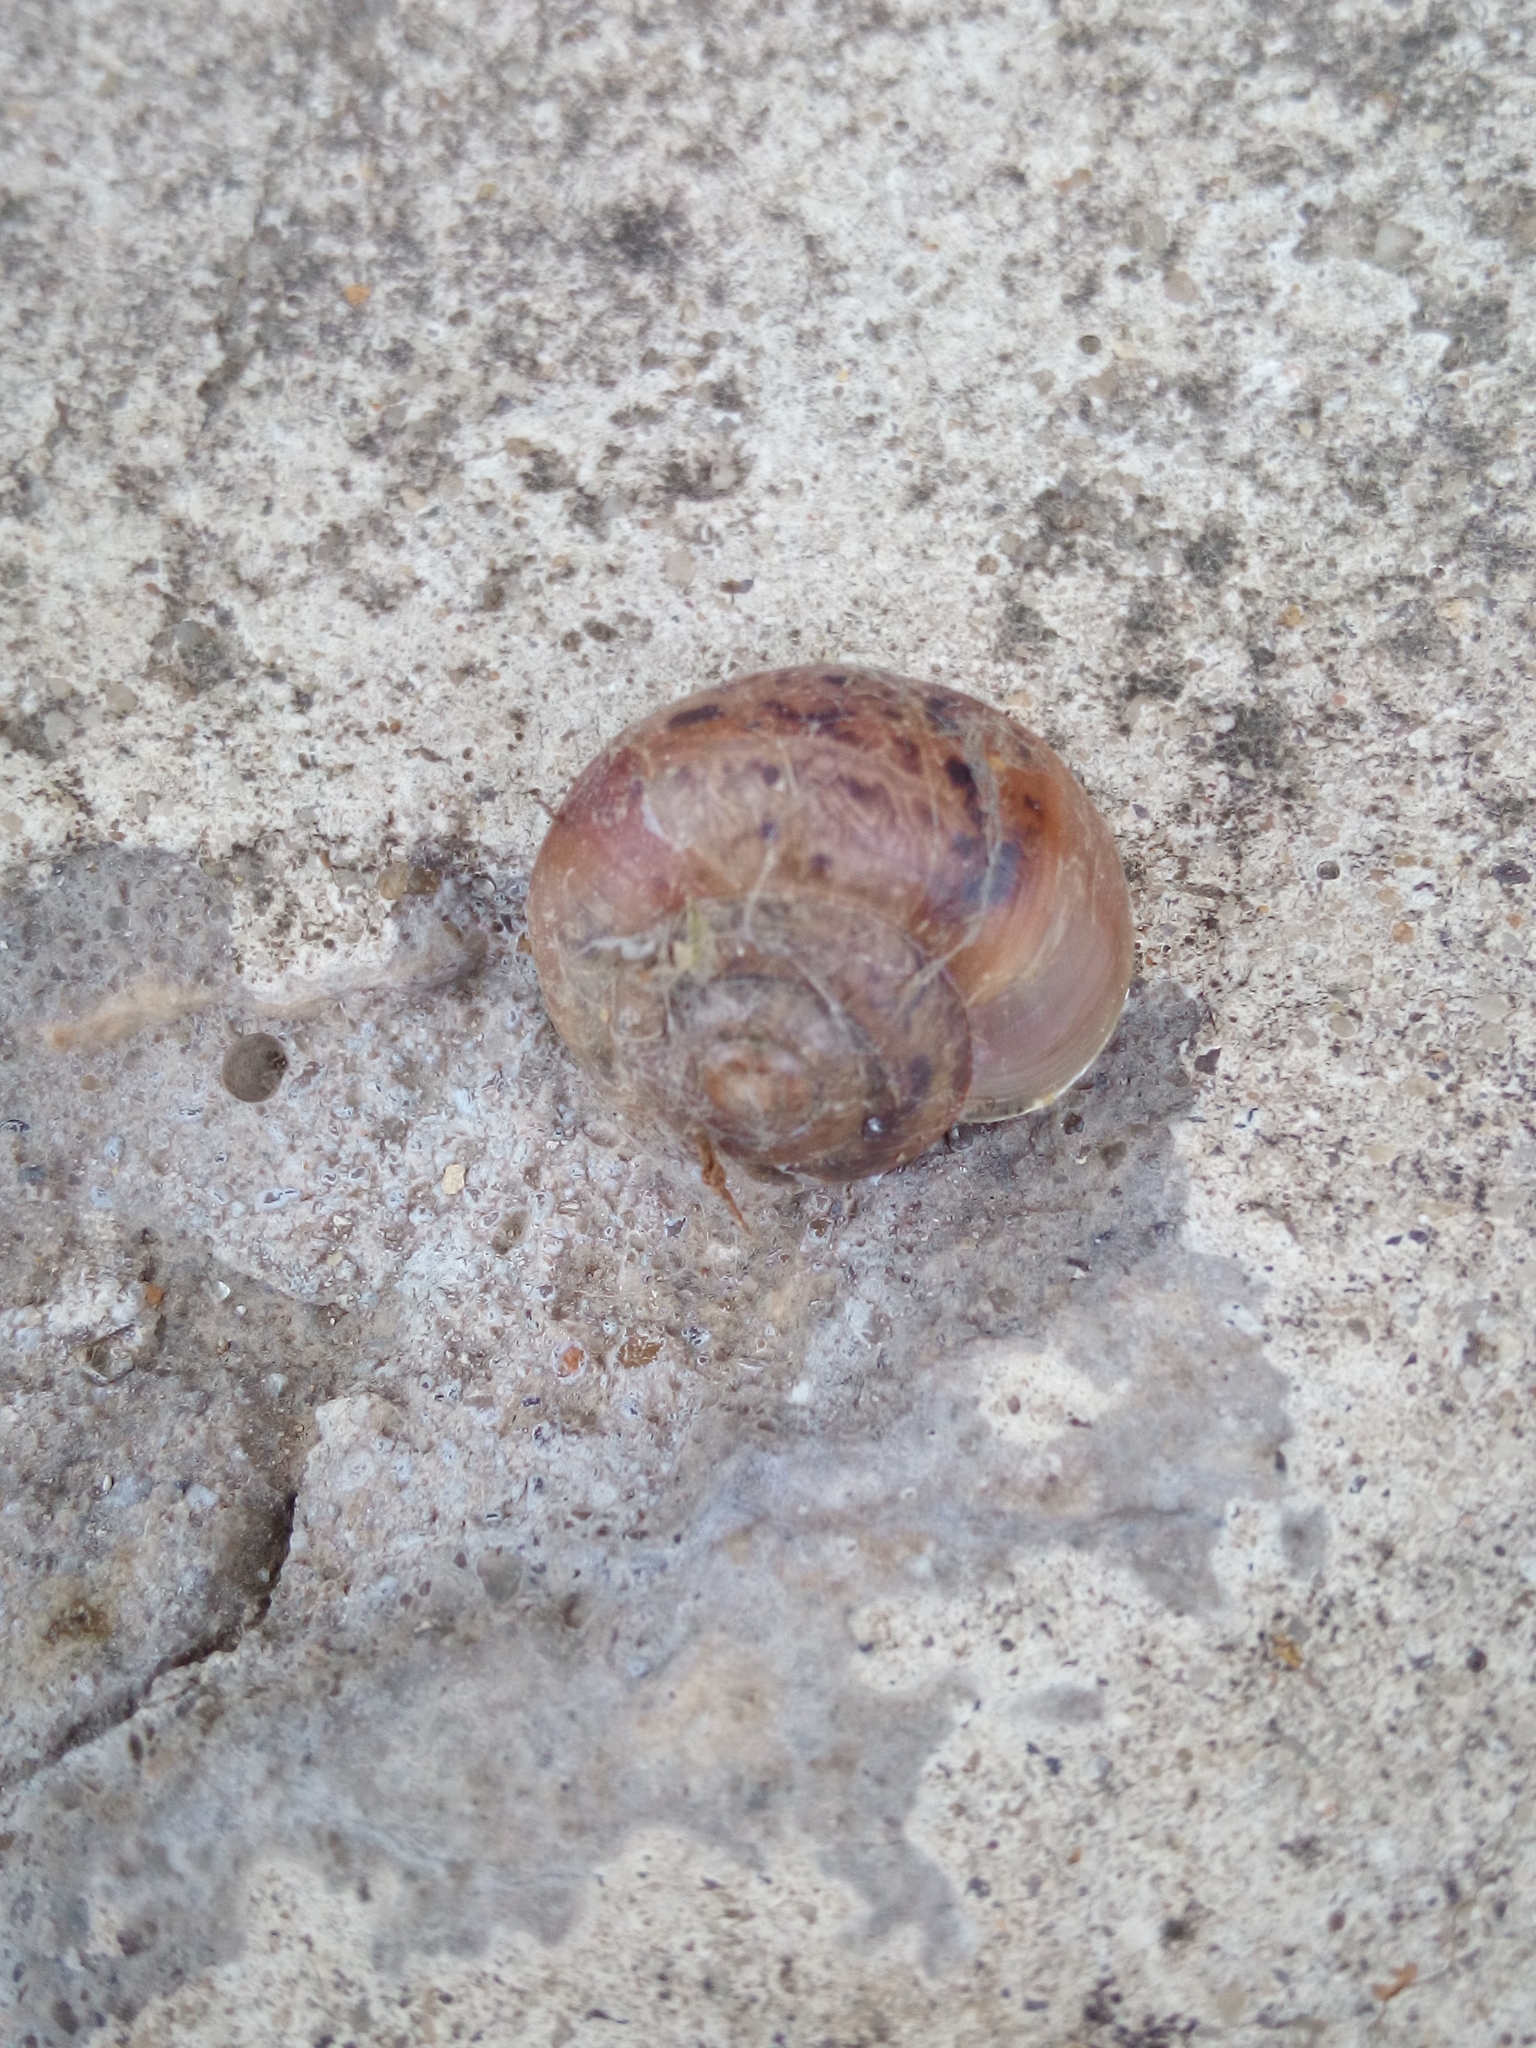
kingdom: Animalia
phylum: Mollusca
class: Gastropoda
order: Stylommatophora
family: Camaenidae
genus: Fruticicola
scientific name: Fruticicola fruticum
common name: Bush snail
